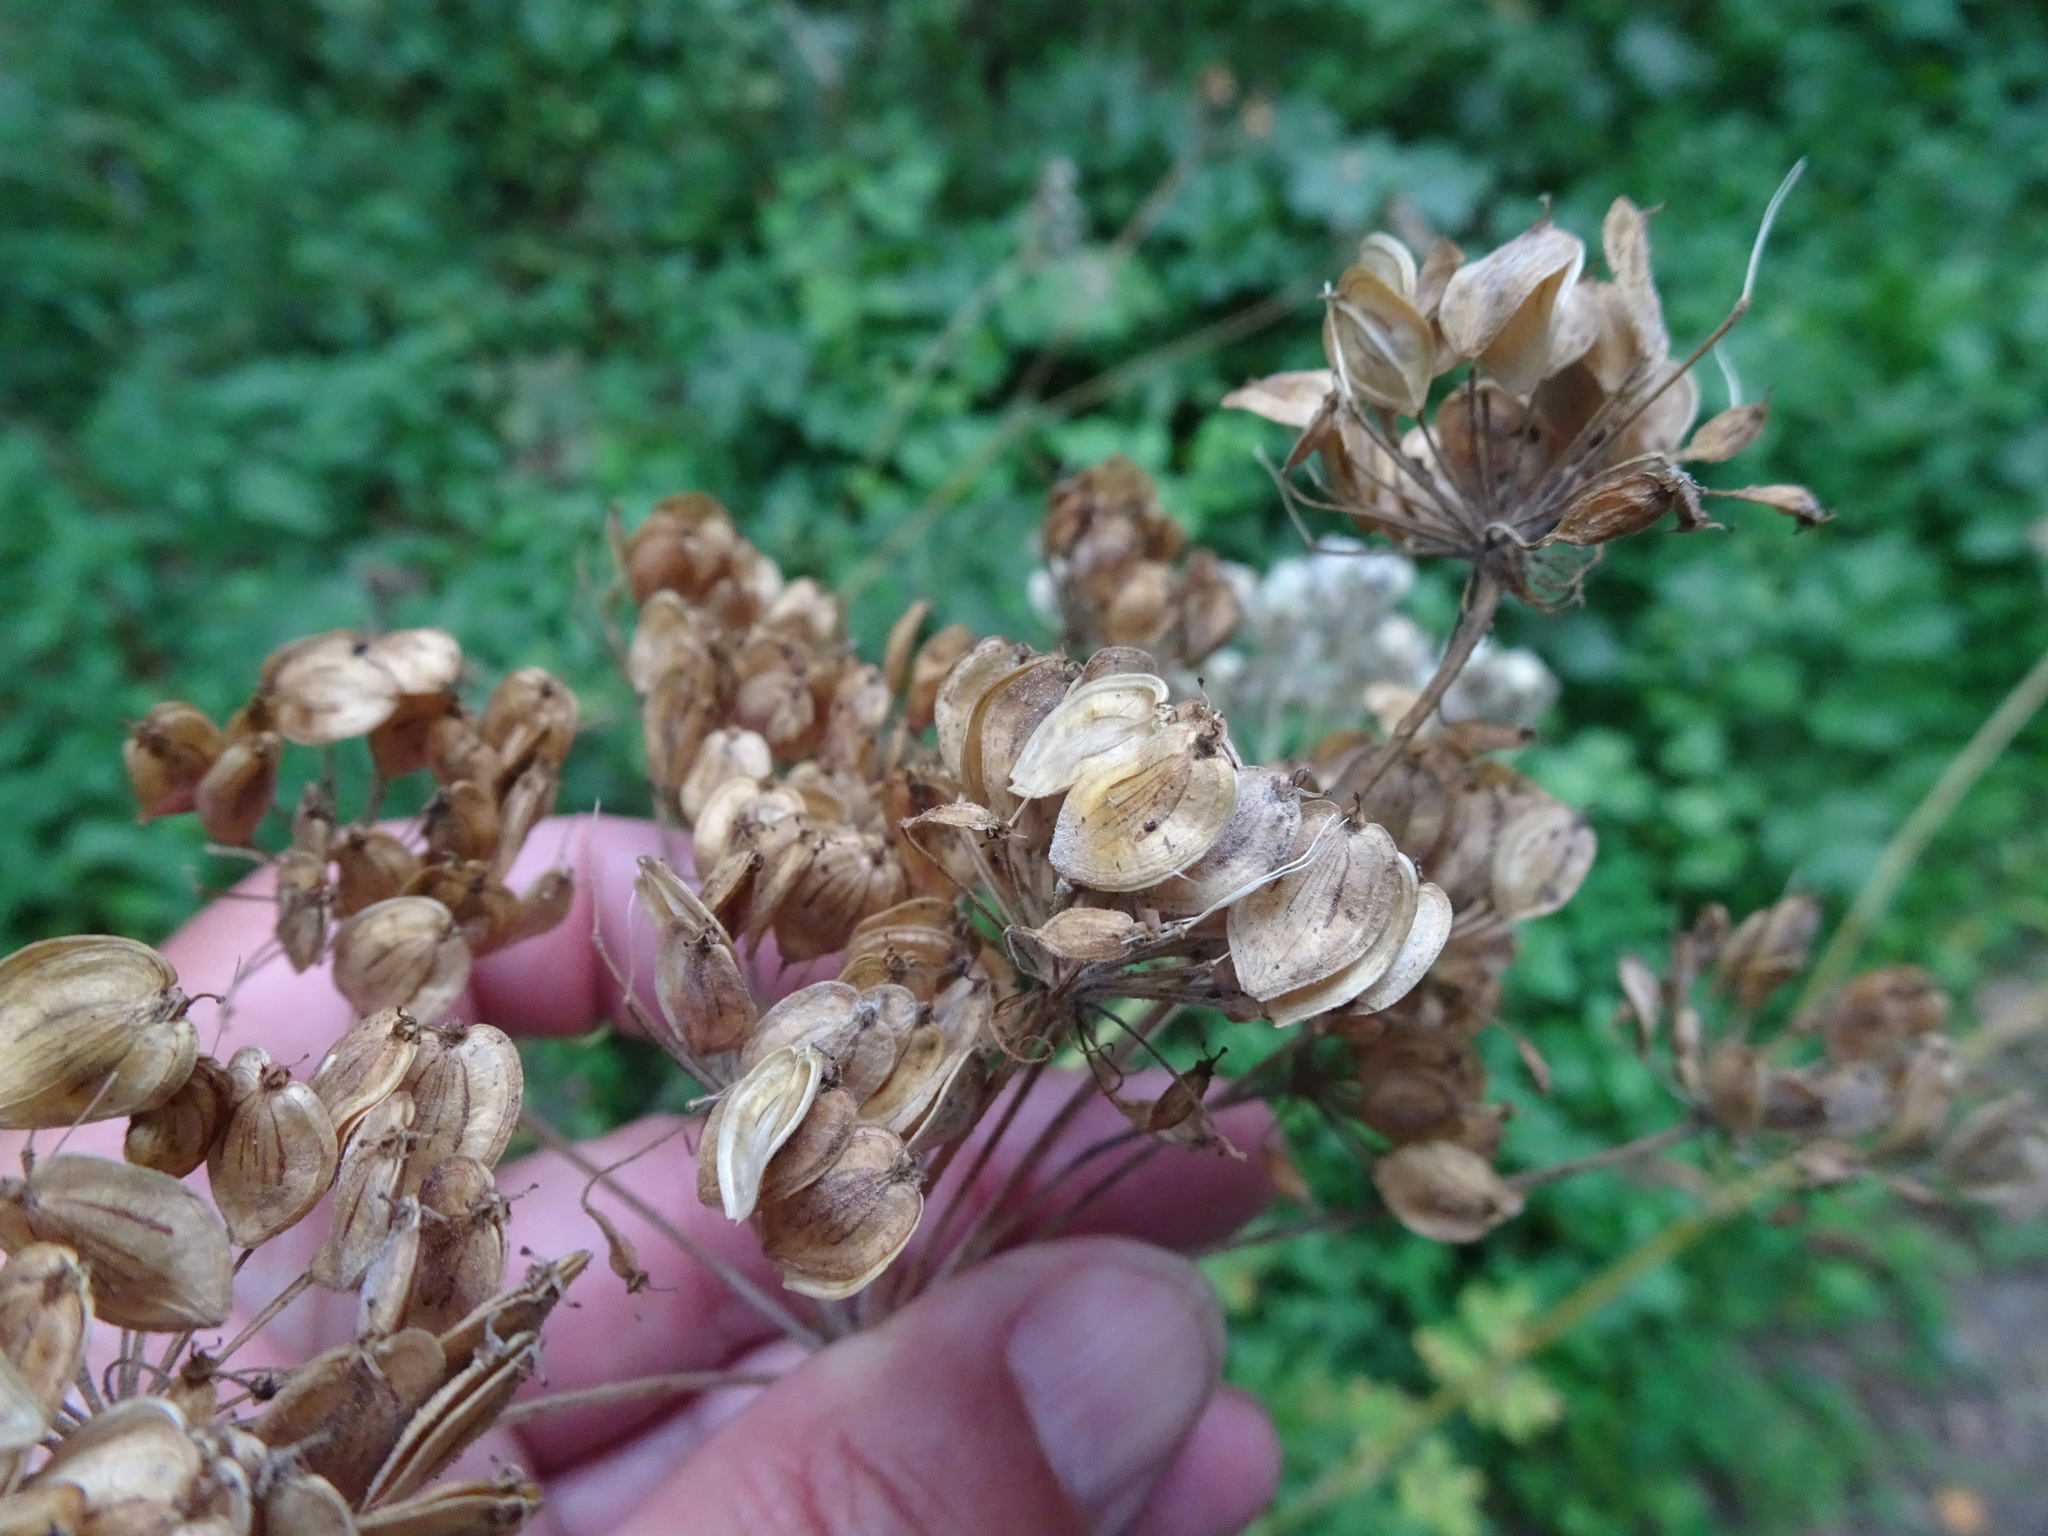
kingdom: Plantae
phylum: Tracheophyta
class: Magnoliopsida
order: Apiales
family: Apiaceae
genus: Heracleum
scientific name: Heracleum sphondylium
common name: Hogweed
